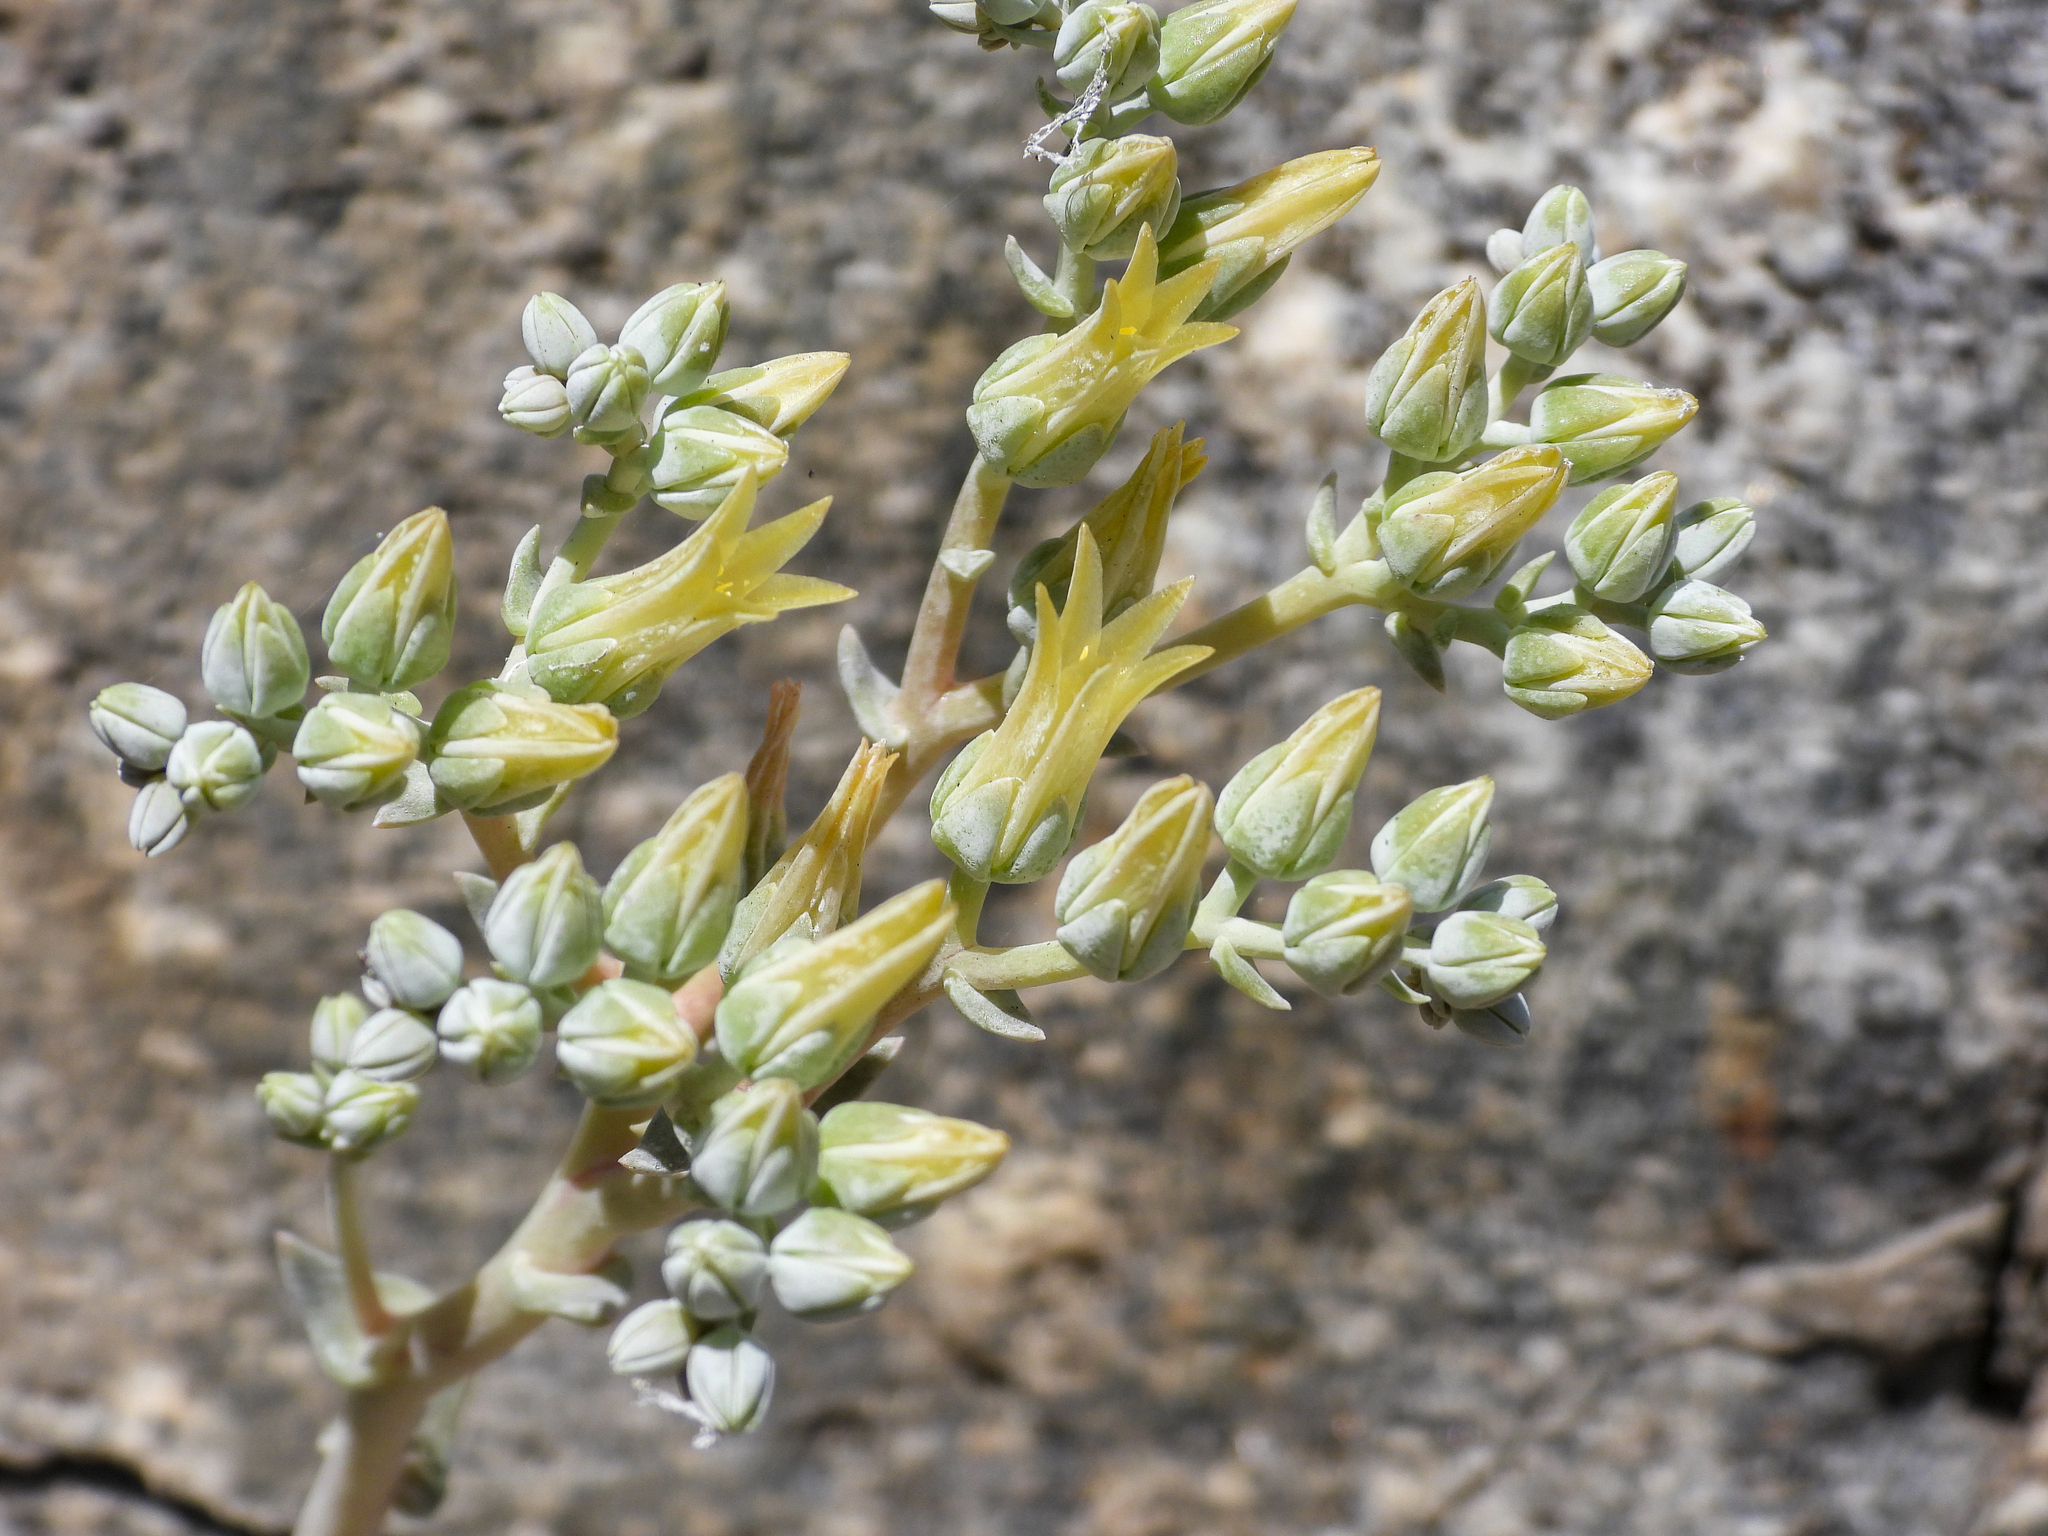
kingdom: Plantae
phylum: Tracheophyta
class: Magnoliopsida
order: Saxifragales
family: Crassulaceae
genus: Dudleya
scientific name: Dudleya abramsii
